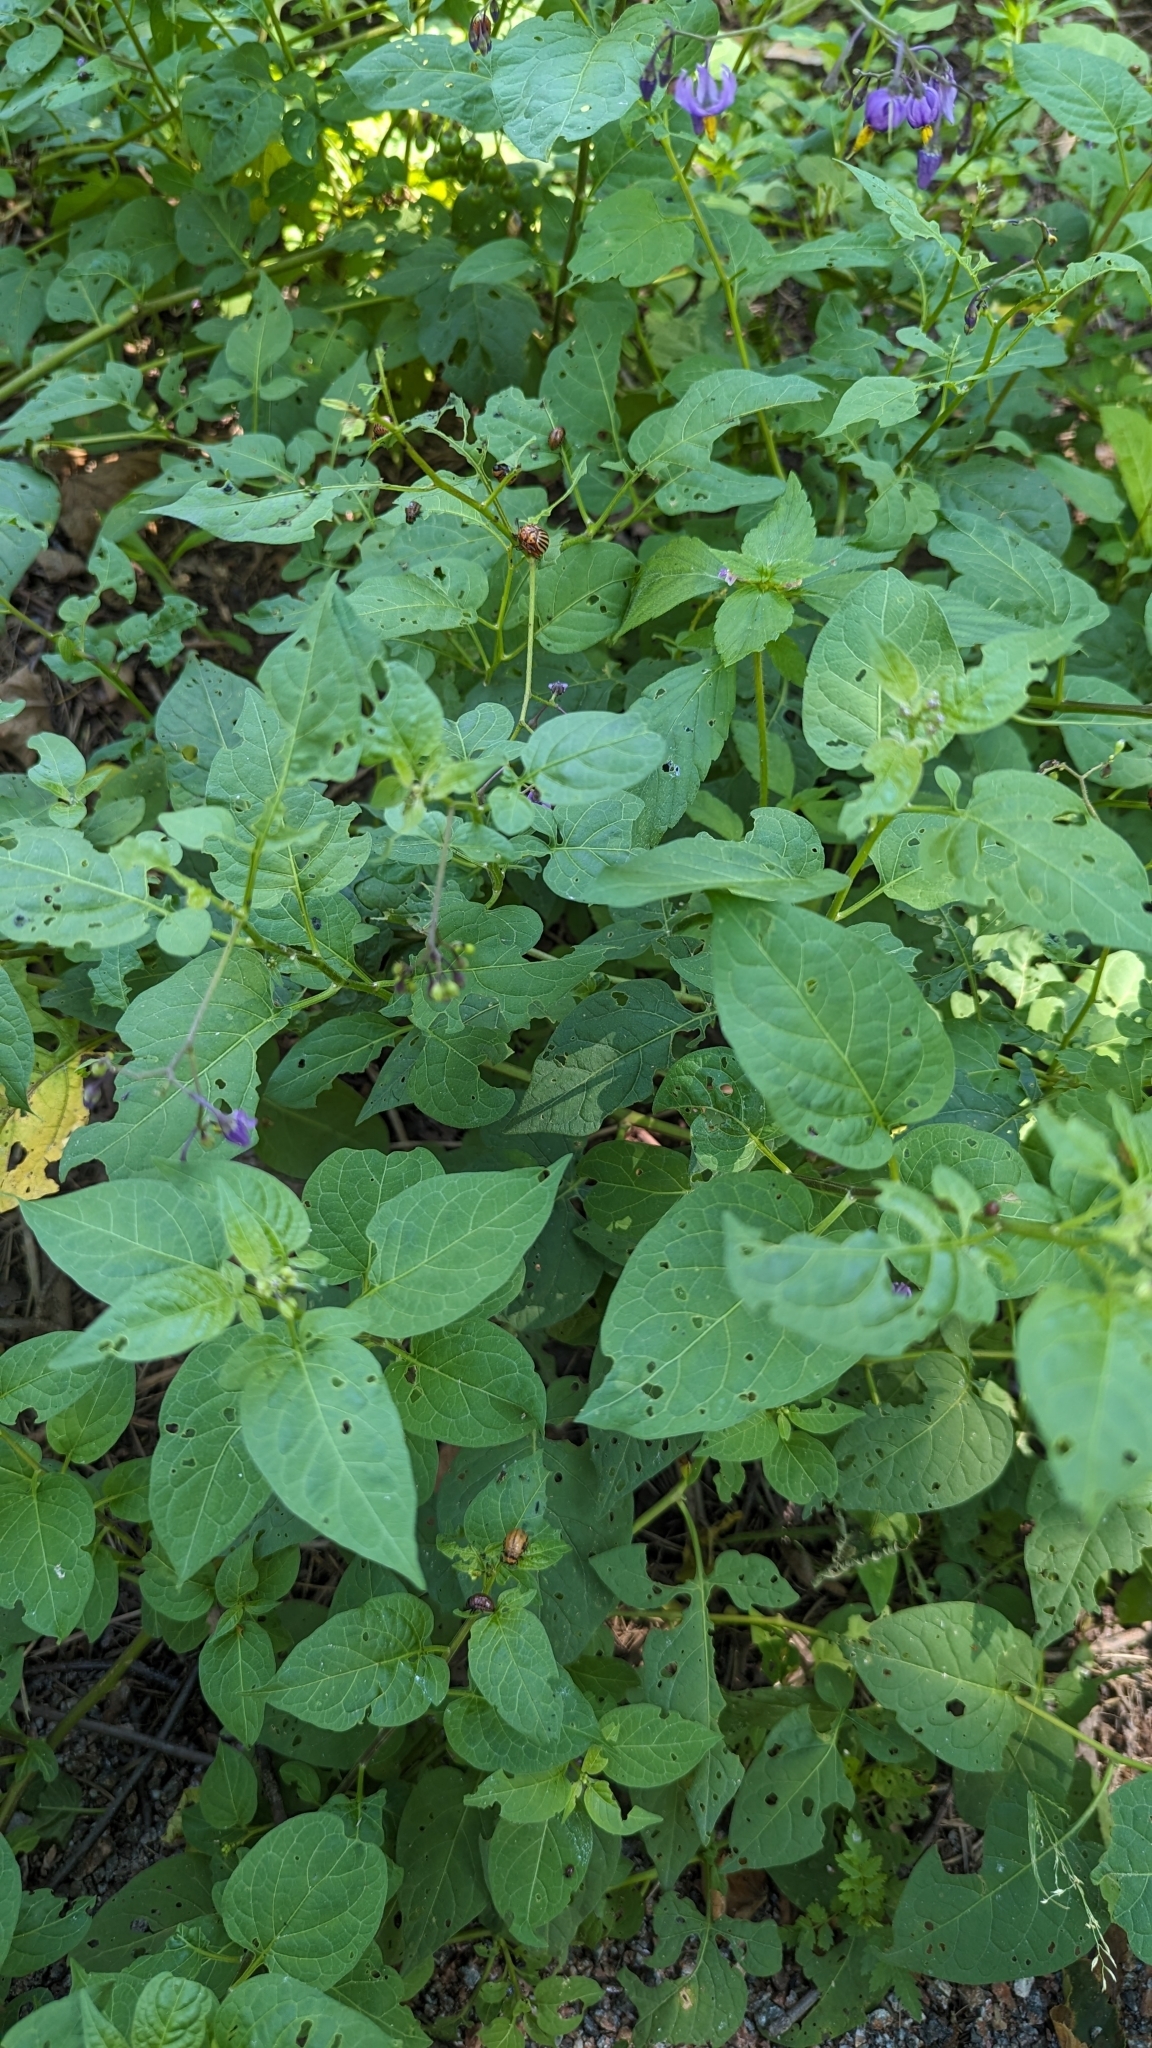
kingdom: Plantae
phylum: Tracheophyta
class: Magnoliopsida
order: Solanales
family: Solanaceae
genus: Solanum
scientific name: Solanum dulcamara
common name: Climbing nightshade
